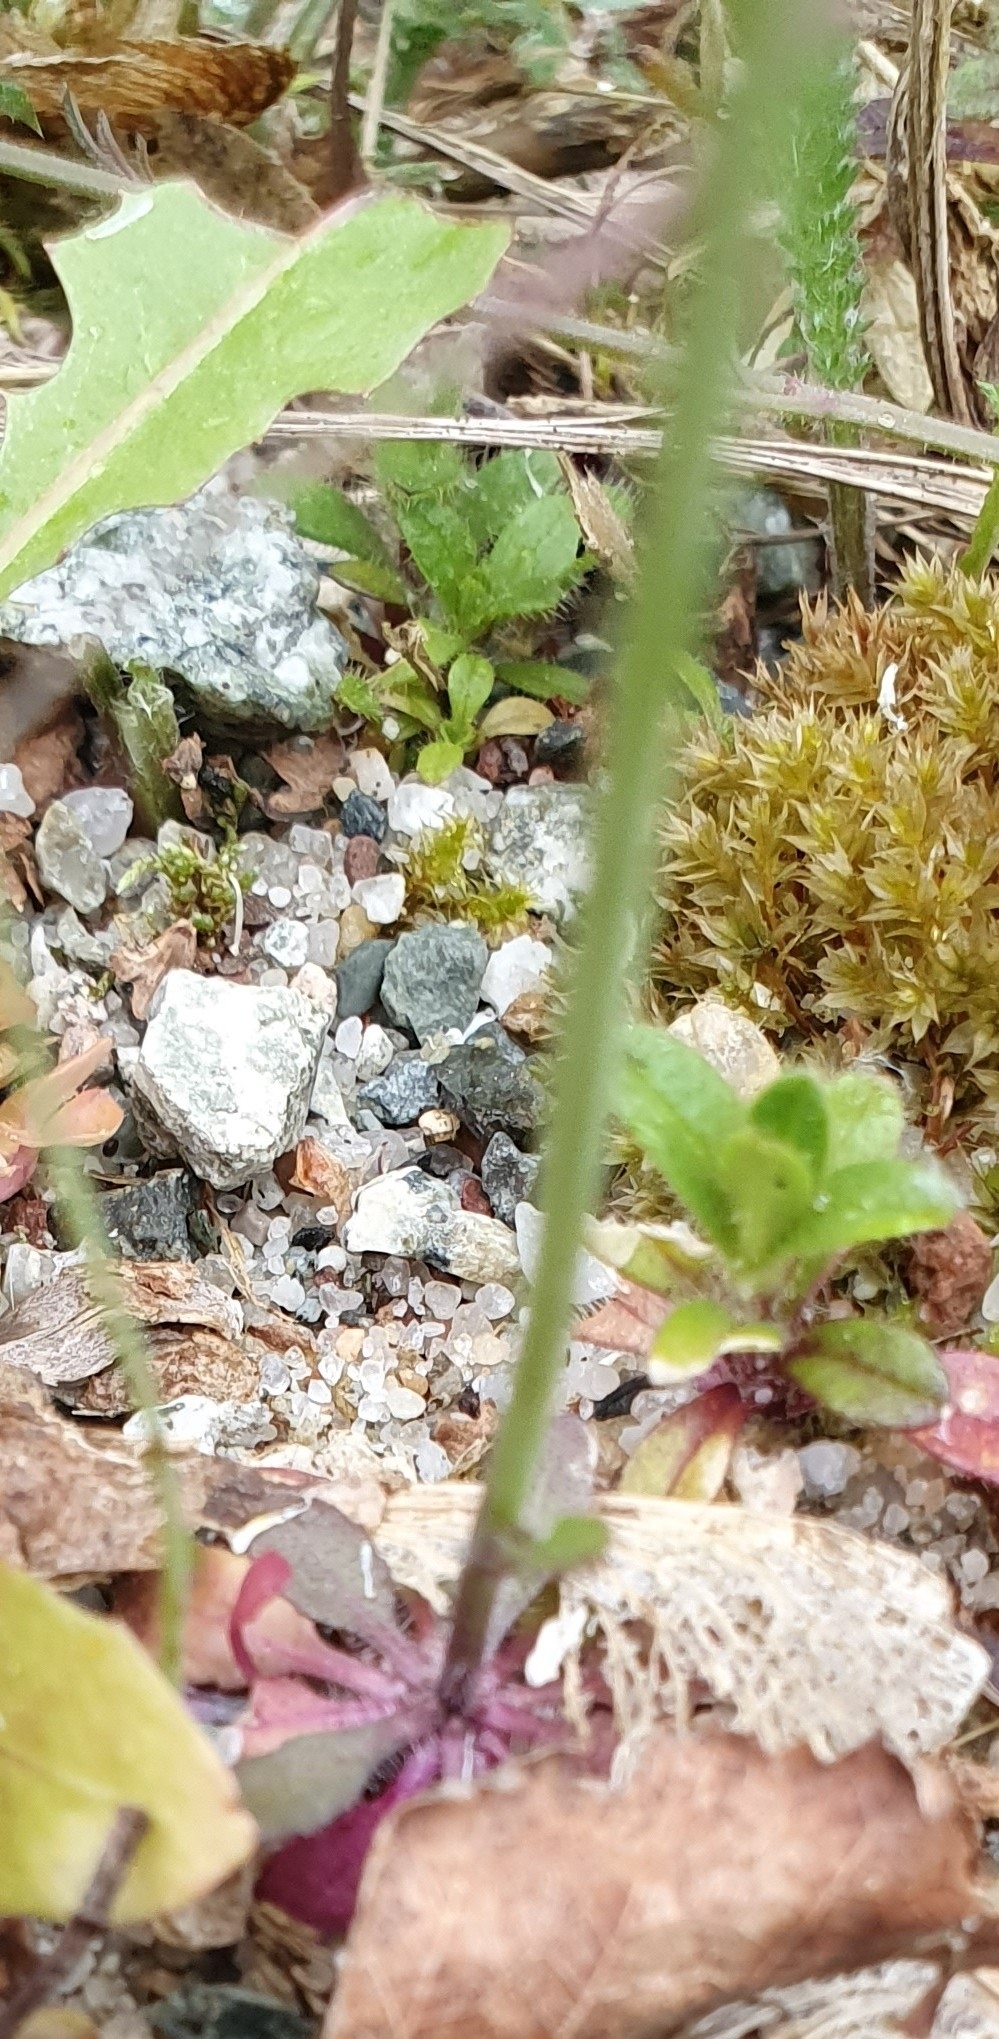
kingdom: Plantae
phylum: Tracheophyta
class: Magnoliopsida
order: Brassicales
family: Brassicaceae
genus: Arabidopsis
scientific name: Arabidopsis thaliana
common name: Thale cress
